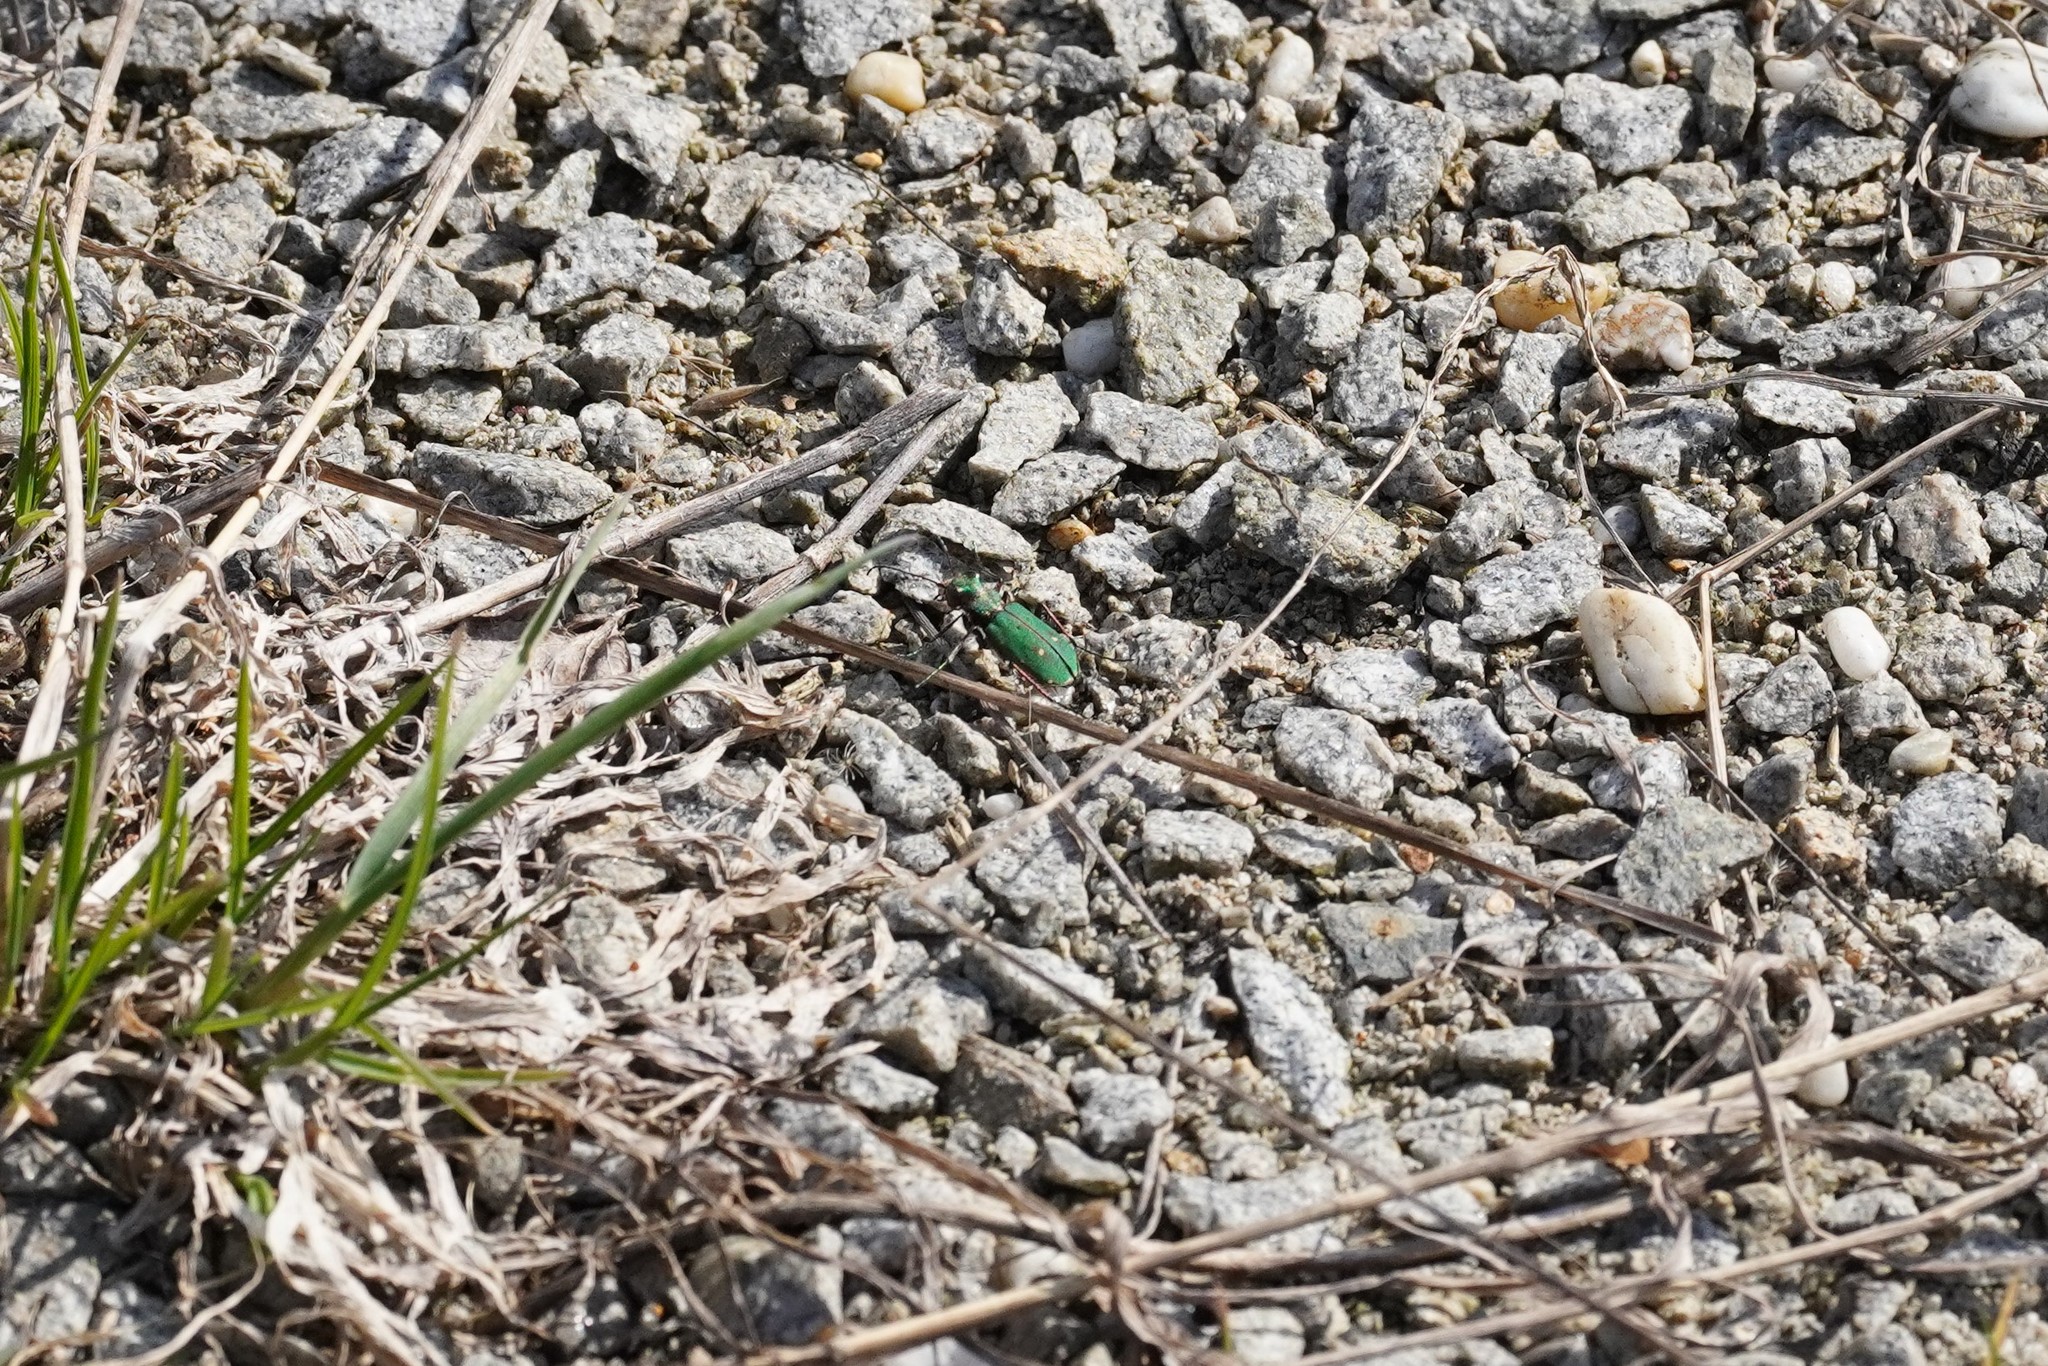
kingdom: Animalia
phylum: Arthropoda
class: Insecta
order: Coleoptera
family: Carabidae
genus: Cicindela
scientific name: Cicindela campestris
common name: Common tiger beetle
